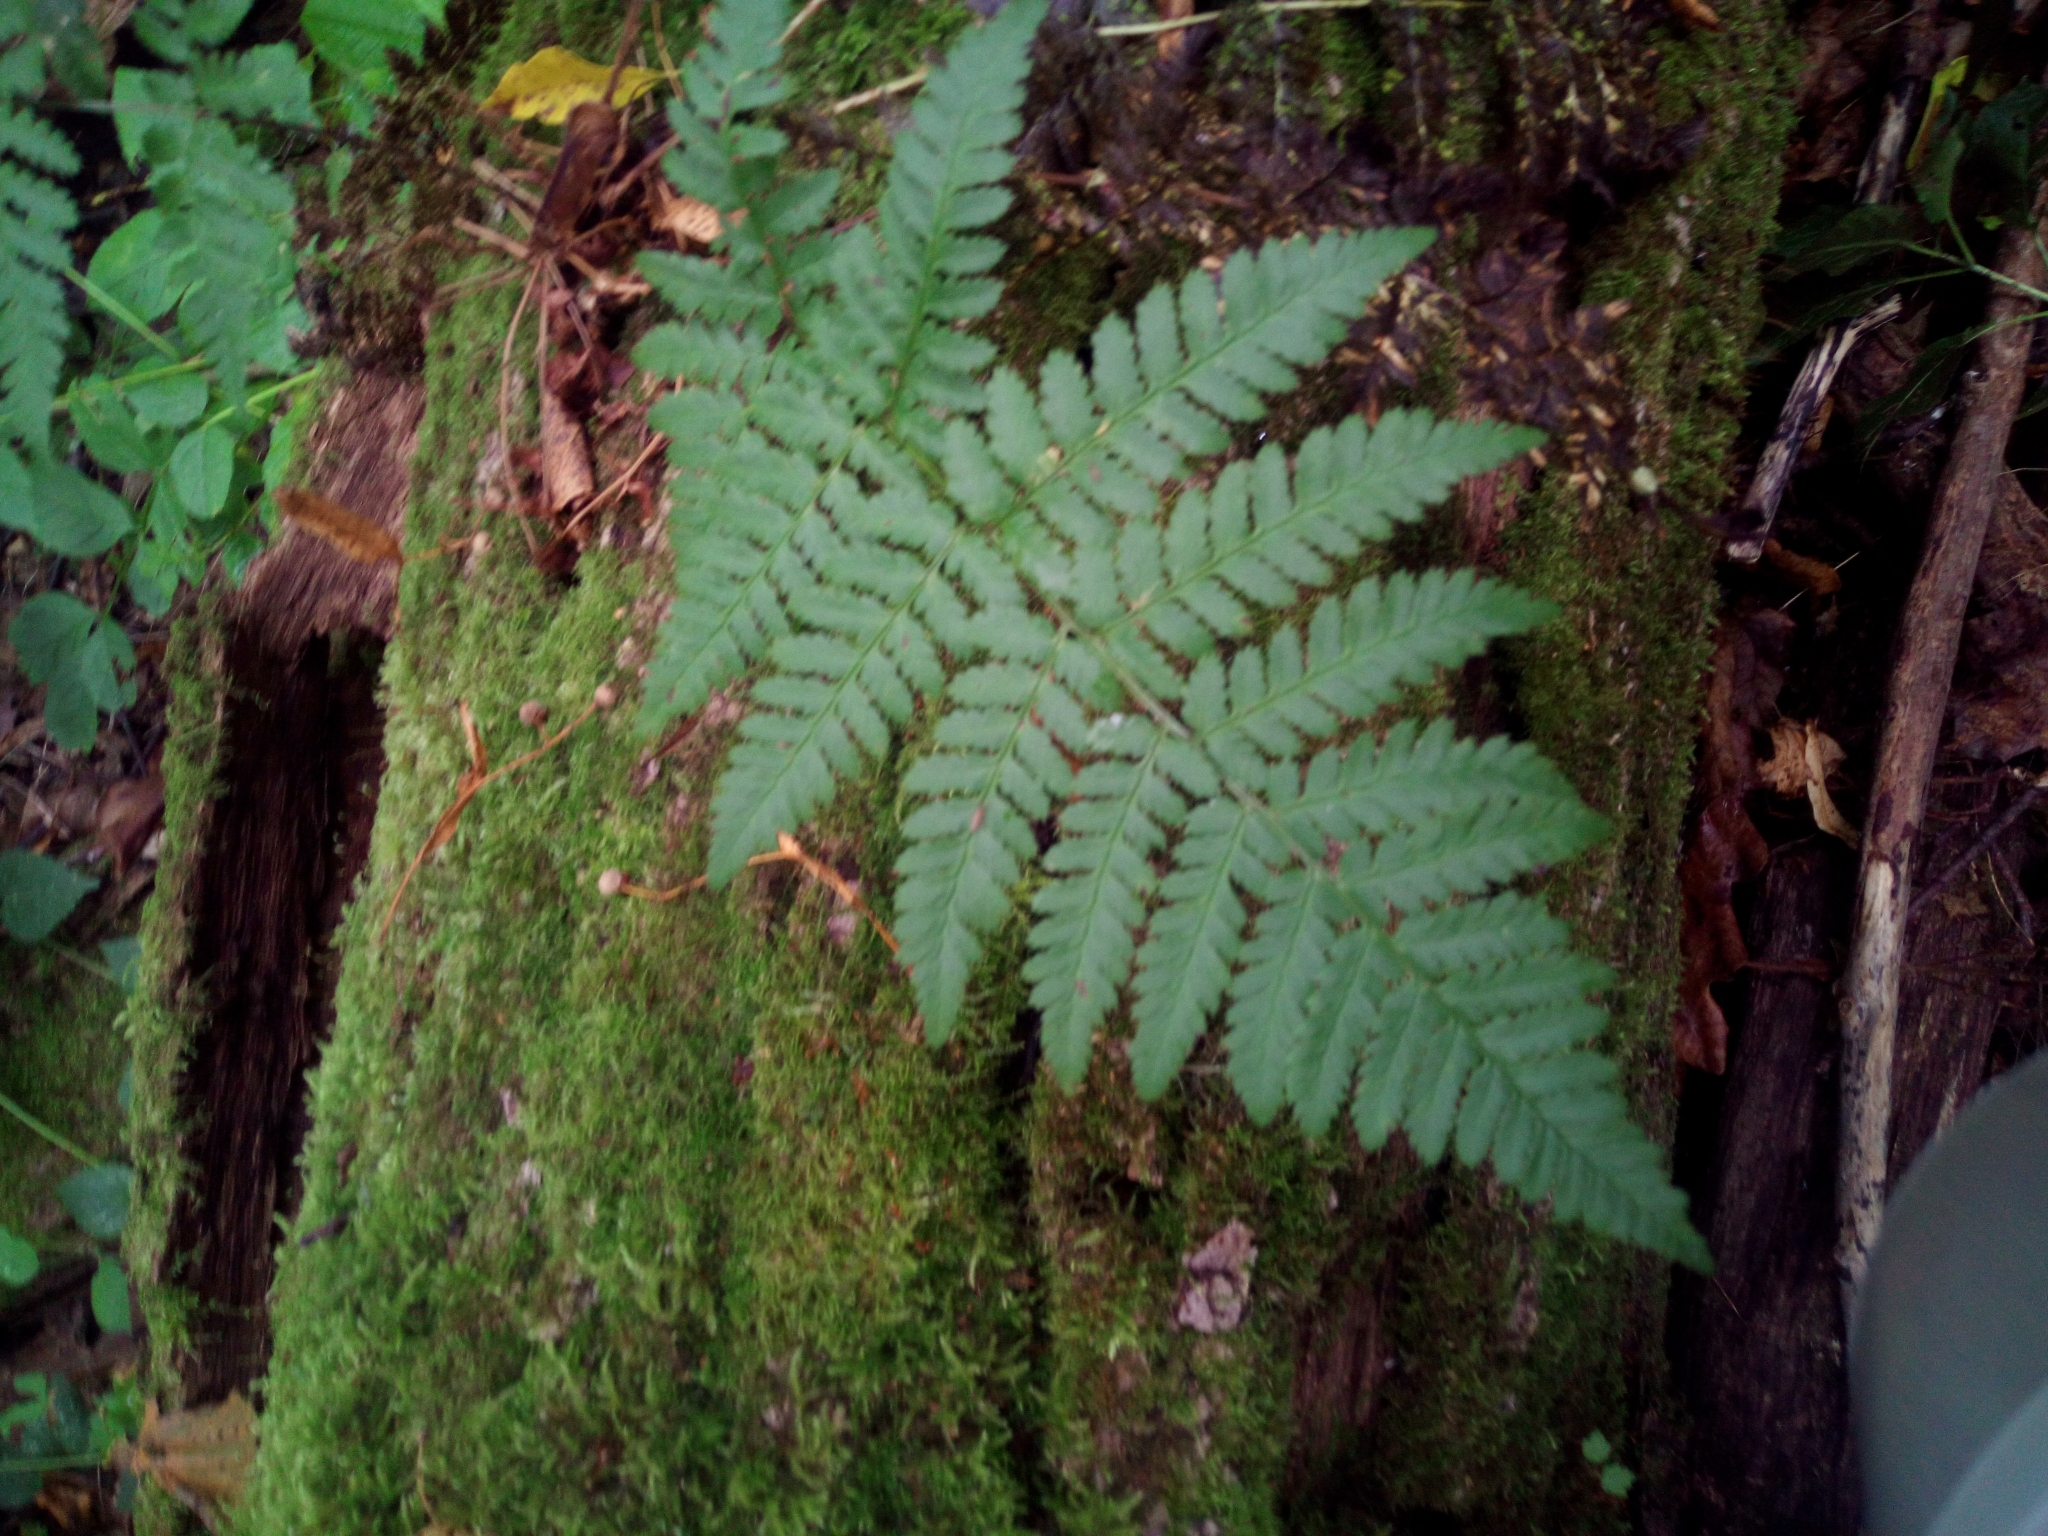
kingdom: Plantae
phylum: Tracheophyta
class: Polypodiopsida
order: Polypodiales
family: Dryopteridaceae
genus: Dryopteris
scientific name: Dryopteris carthusiana
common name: Narrow buckler-fern
